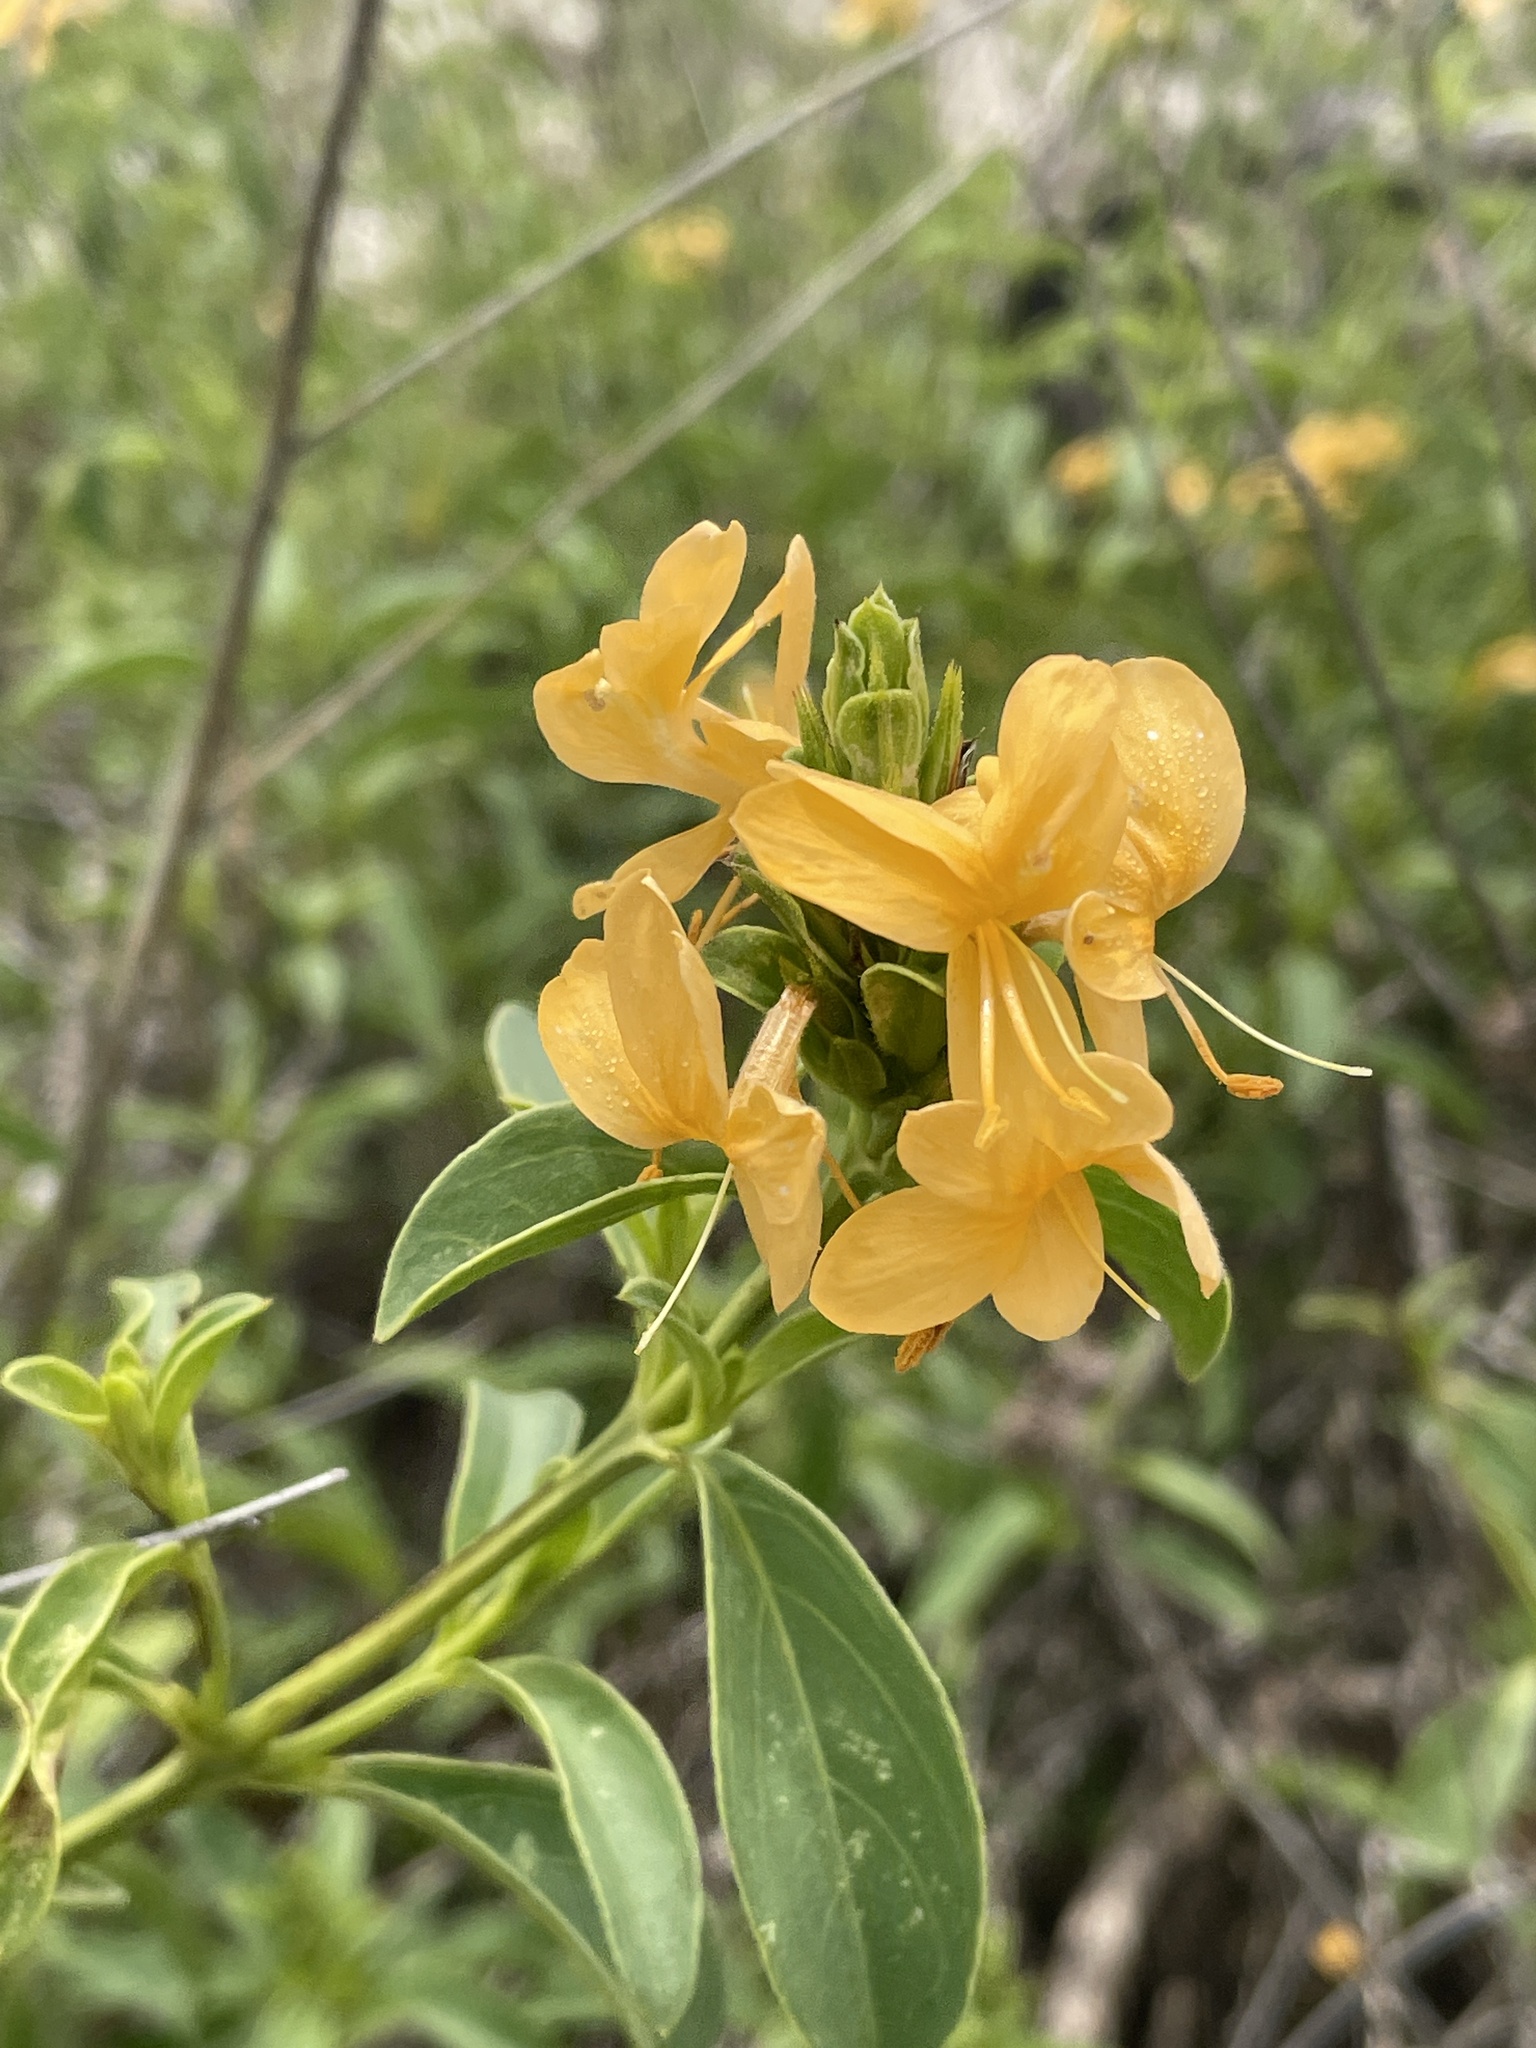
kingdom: Plantae
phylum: Tracheophyta
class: Magnoliopsida
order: Lamiales
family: Acanthaceae
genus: Barleria
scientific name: Barleria senensis
